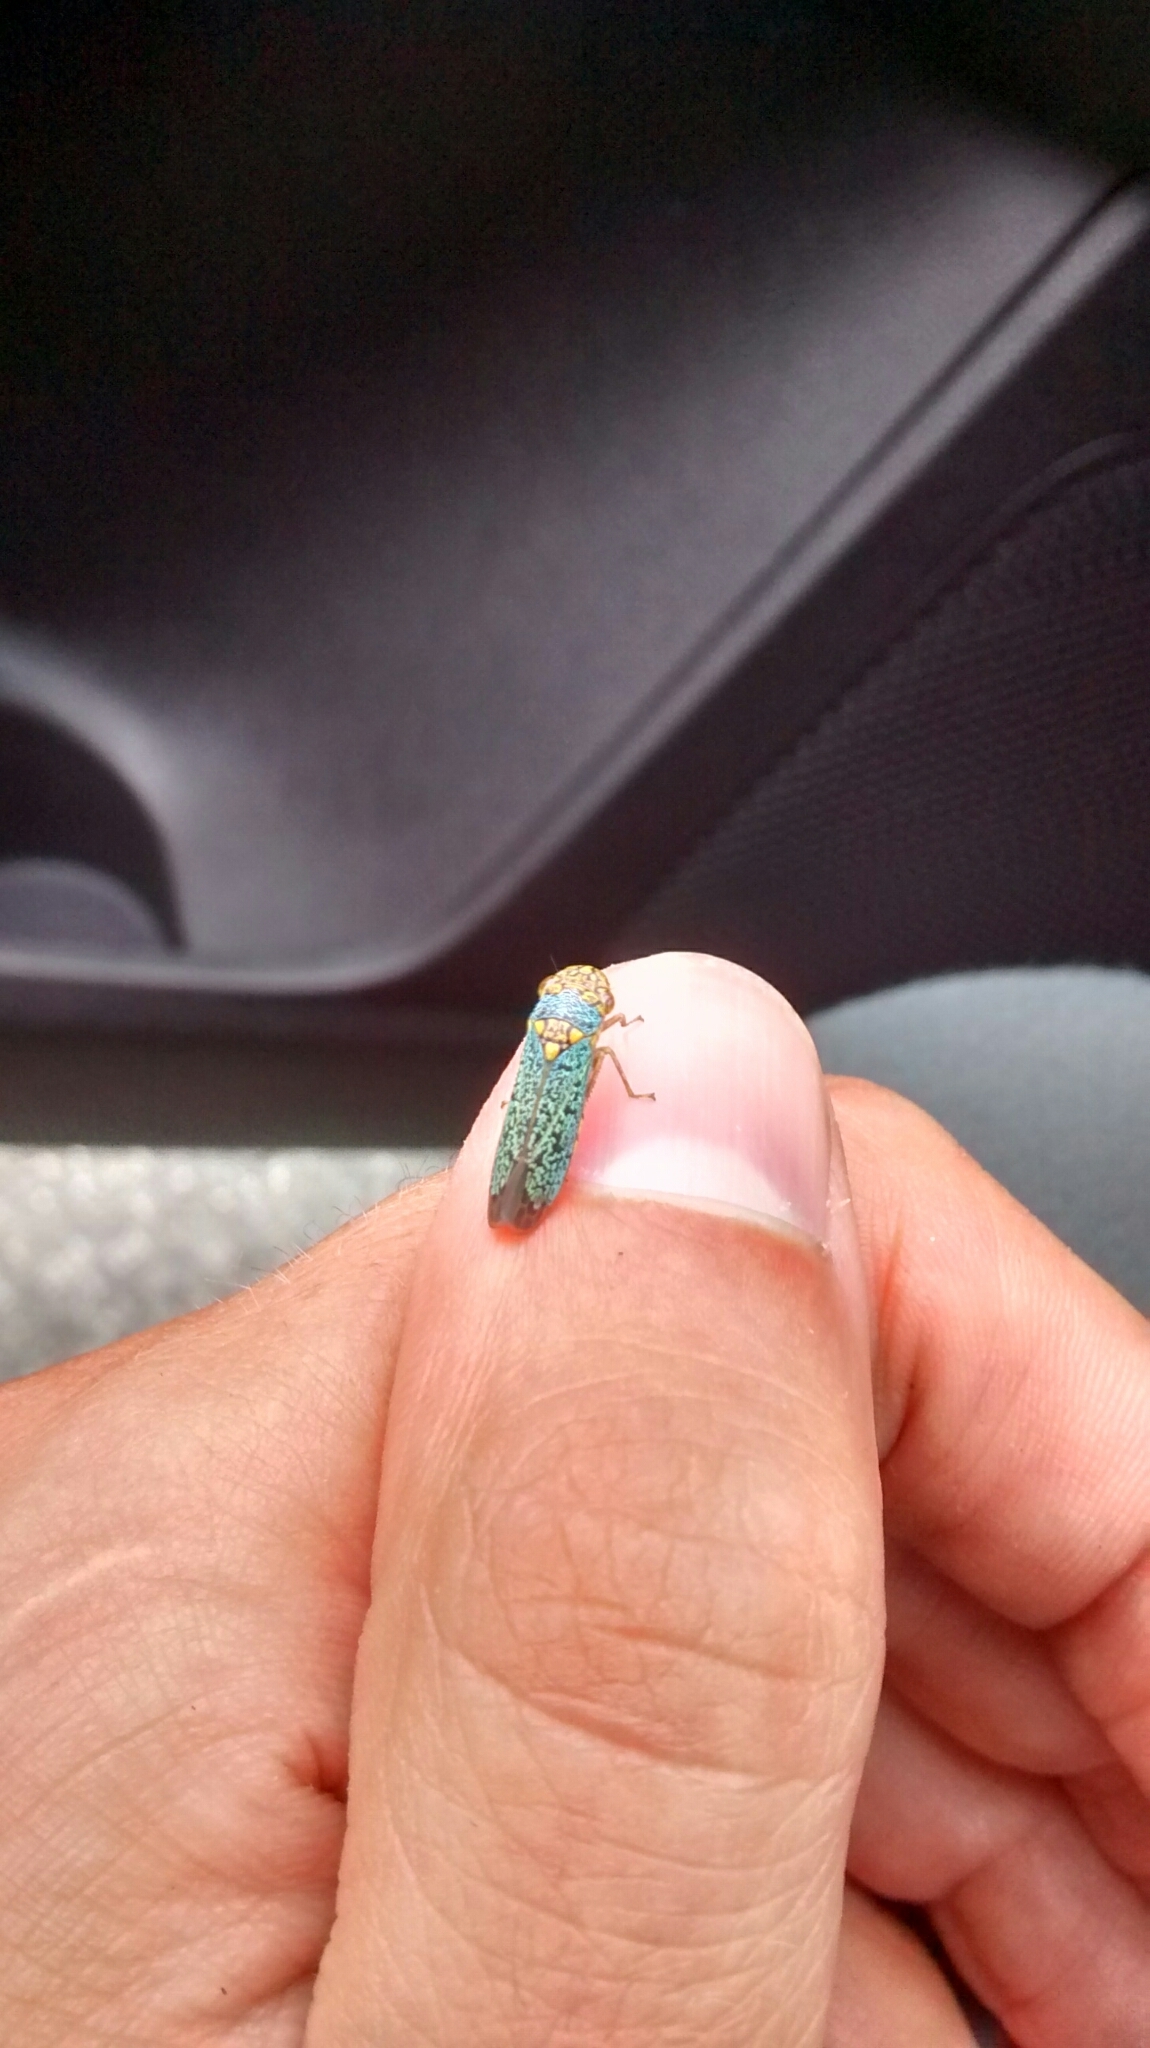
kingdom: Animalia
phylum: Arthropoda
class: Insecta
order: Hemiptera
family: Cicadellidae
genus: Oncometopia
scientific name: Oncometopia orbona
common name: Broad-headed sharpshooter
